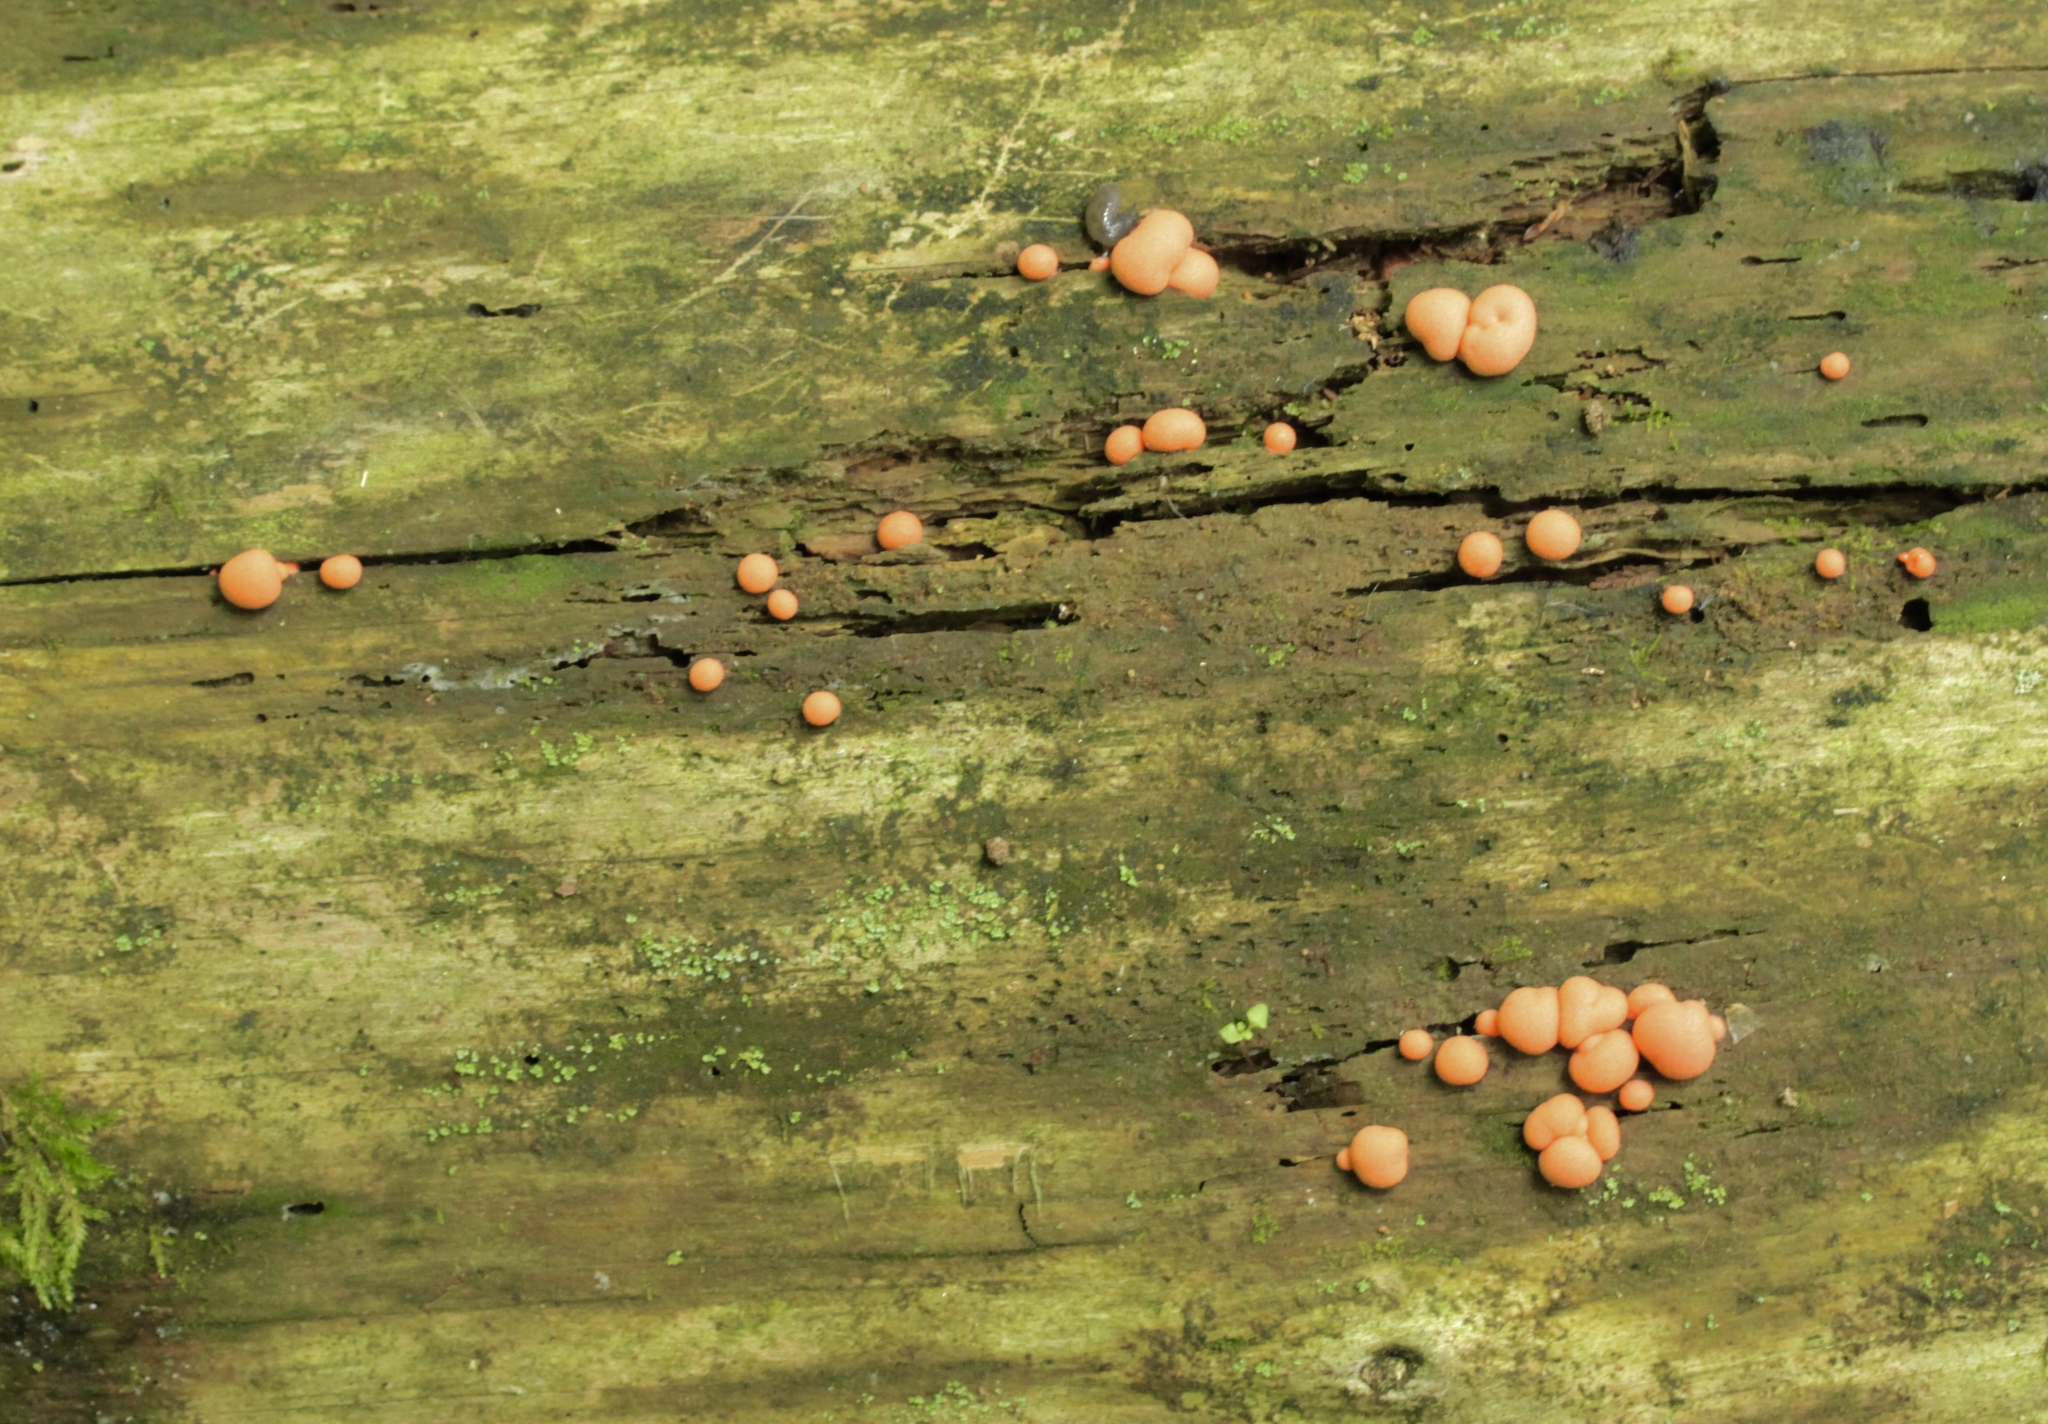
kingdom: Protozoa
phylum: Mycetozoa
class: Myxomycetes
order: Cribrariales
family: Tubiferaceae
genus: Lycogala
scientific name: Lycogala epidendrum
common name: Wolf's milk
